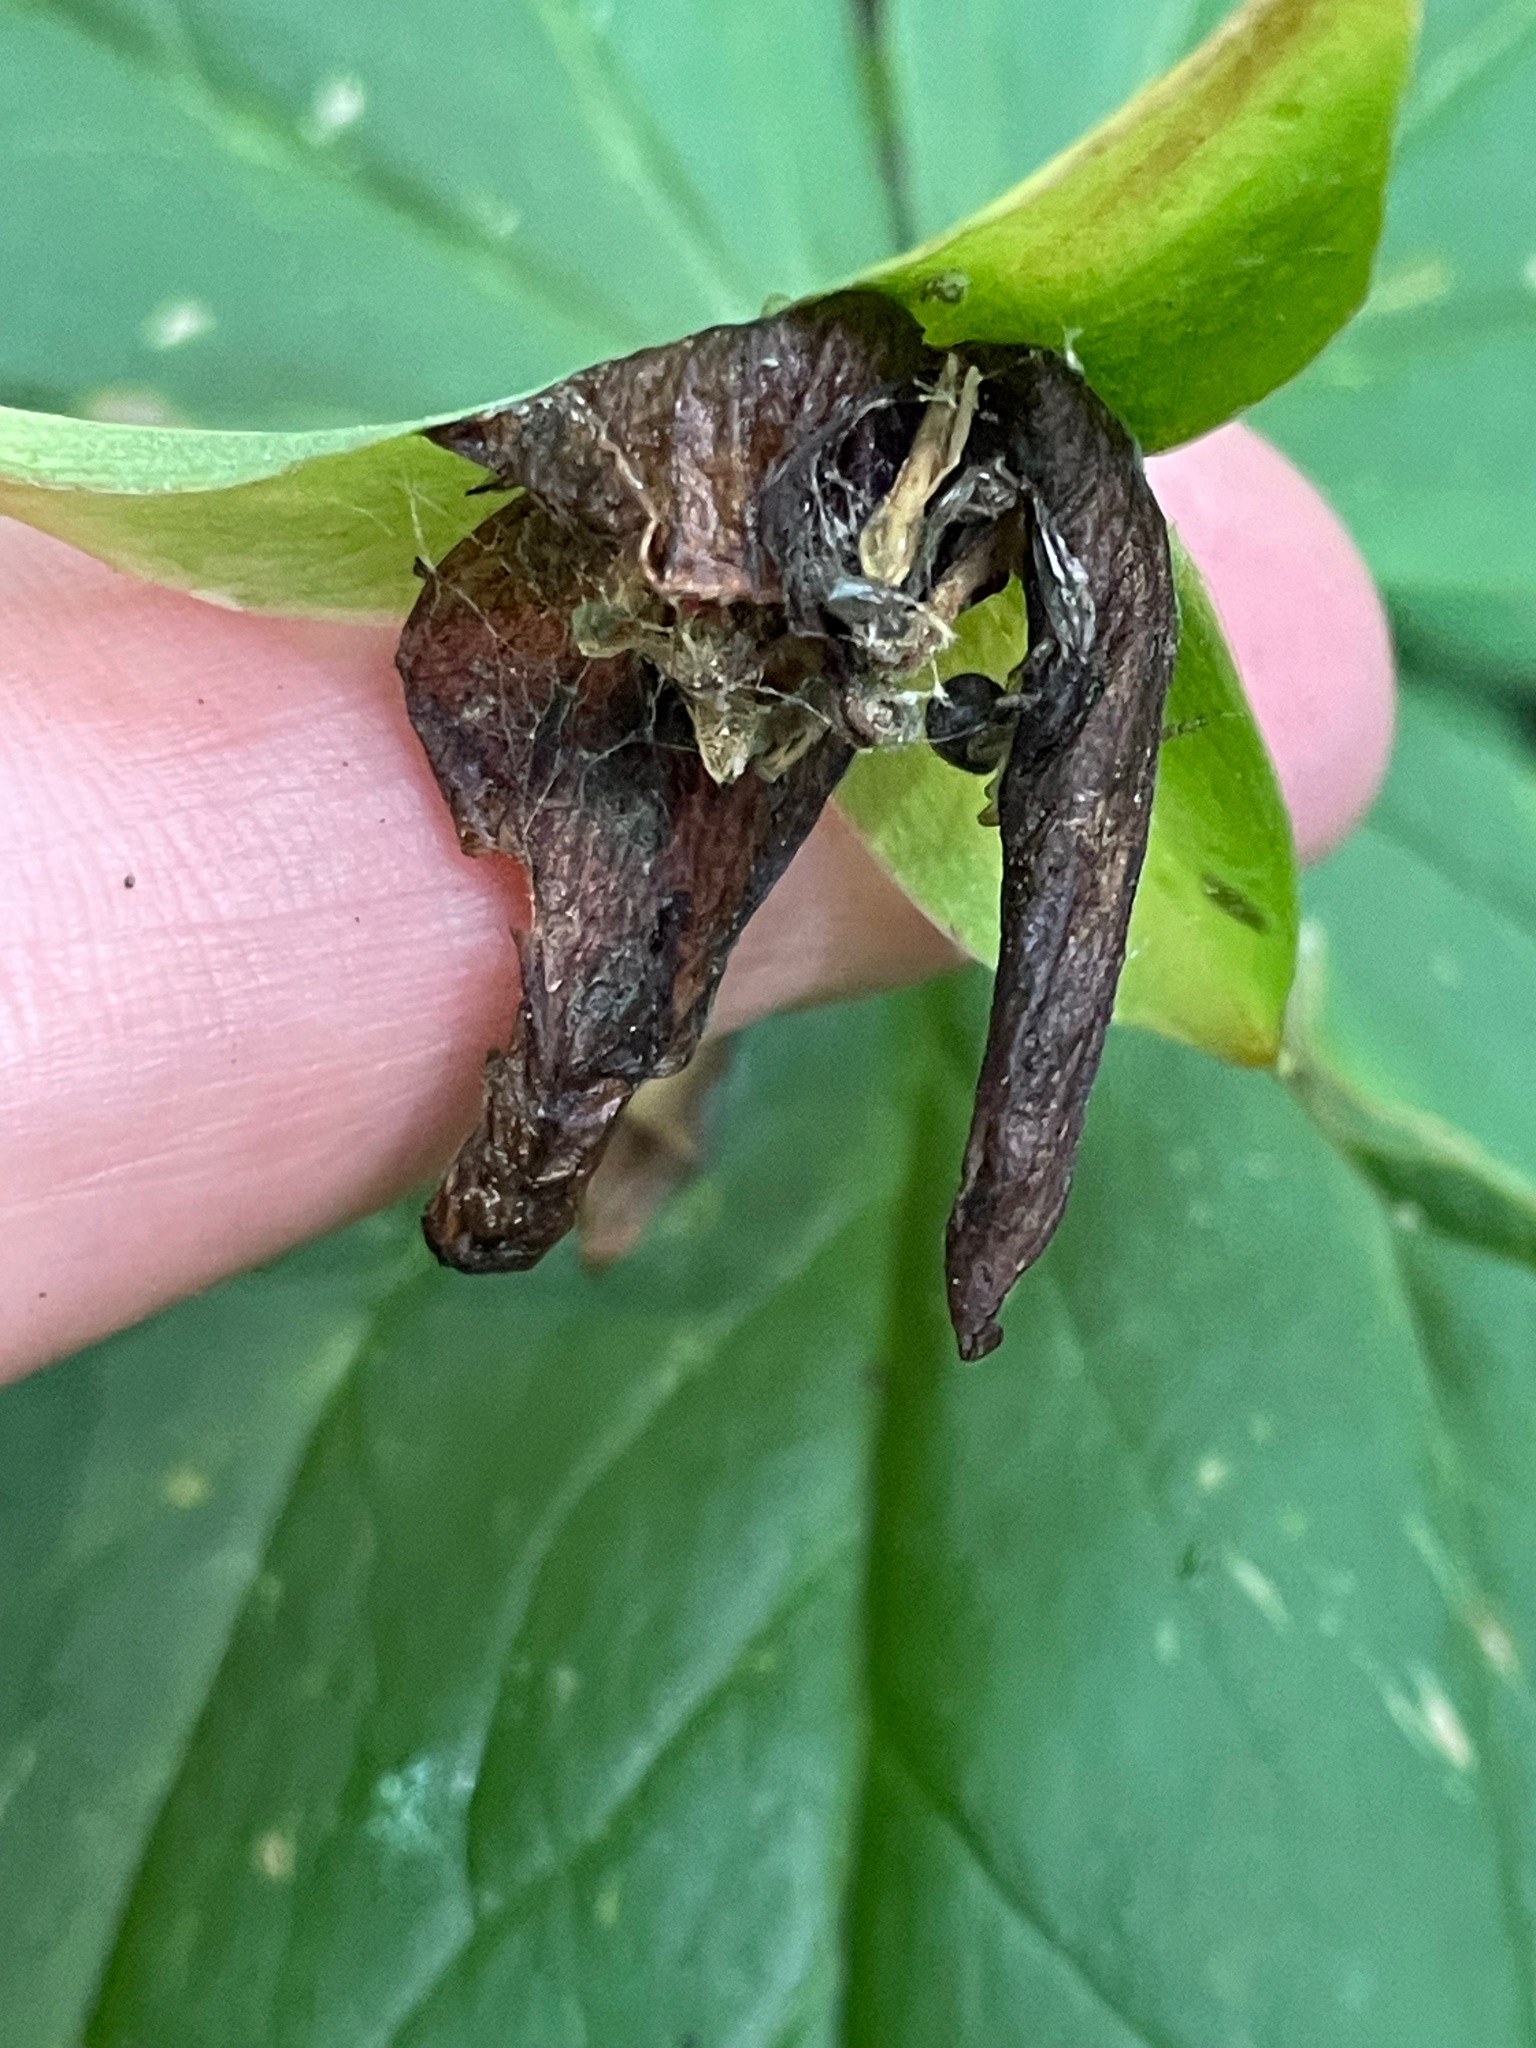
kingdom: Plantae
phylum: Tracheophyta
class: Liliopsida
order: Liliales
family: Melanthiaceae
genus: Trillium
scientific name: Trillium erectum
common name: Purple trillium
